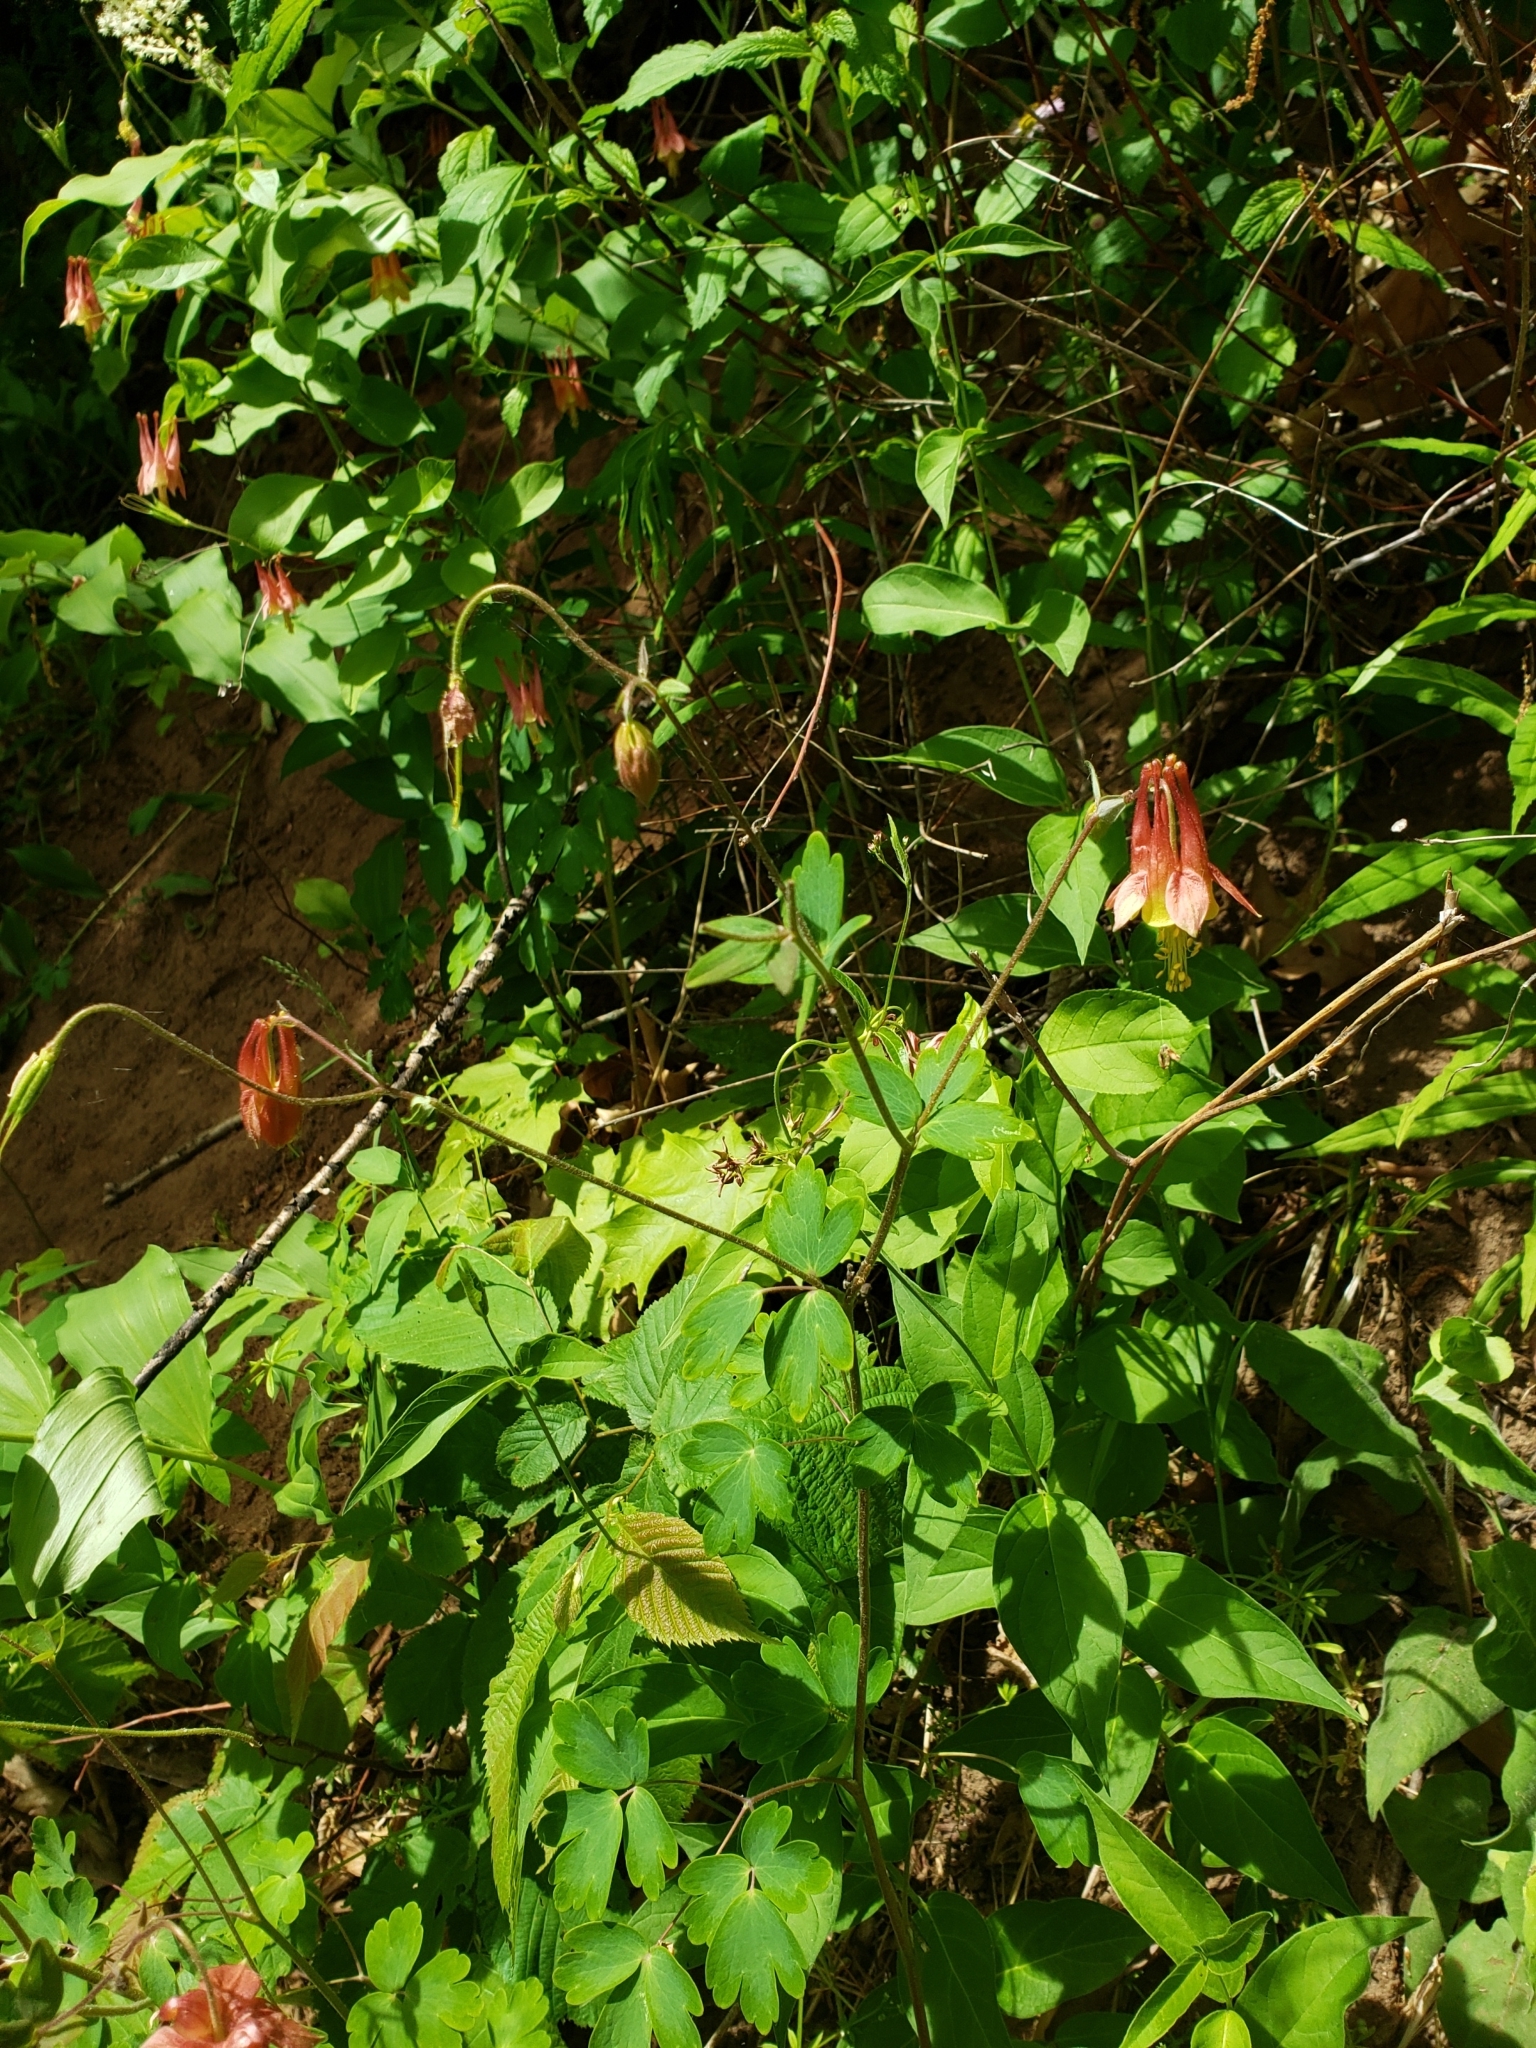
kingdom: Plantae
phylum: Tracheophyta
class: Magnoliopsida
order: Ranunculales
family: Ranunculaceae
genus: Aquilegia
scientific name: Aquilegia canadensis
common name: American columbine
